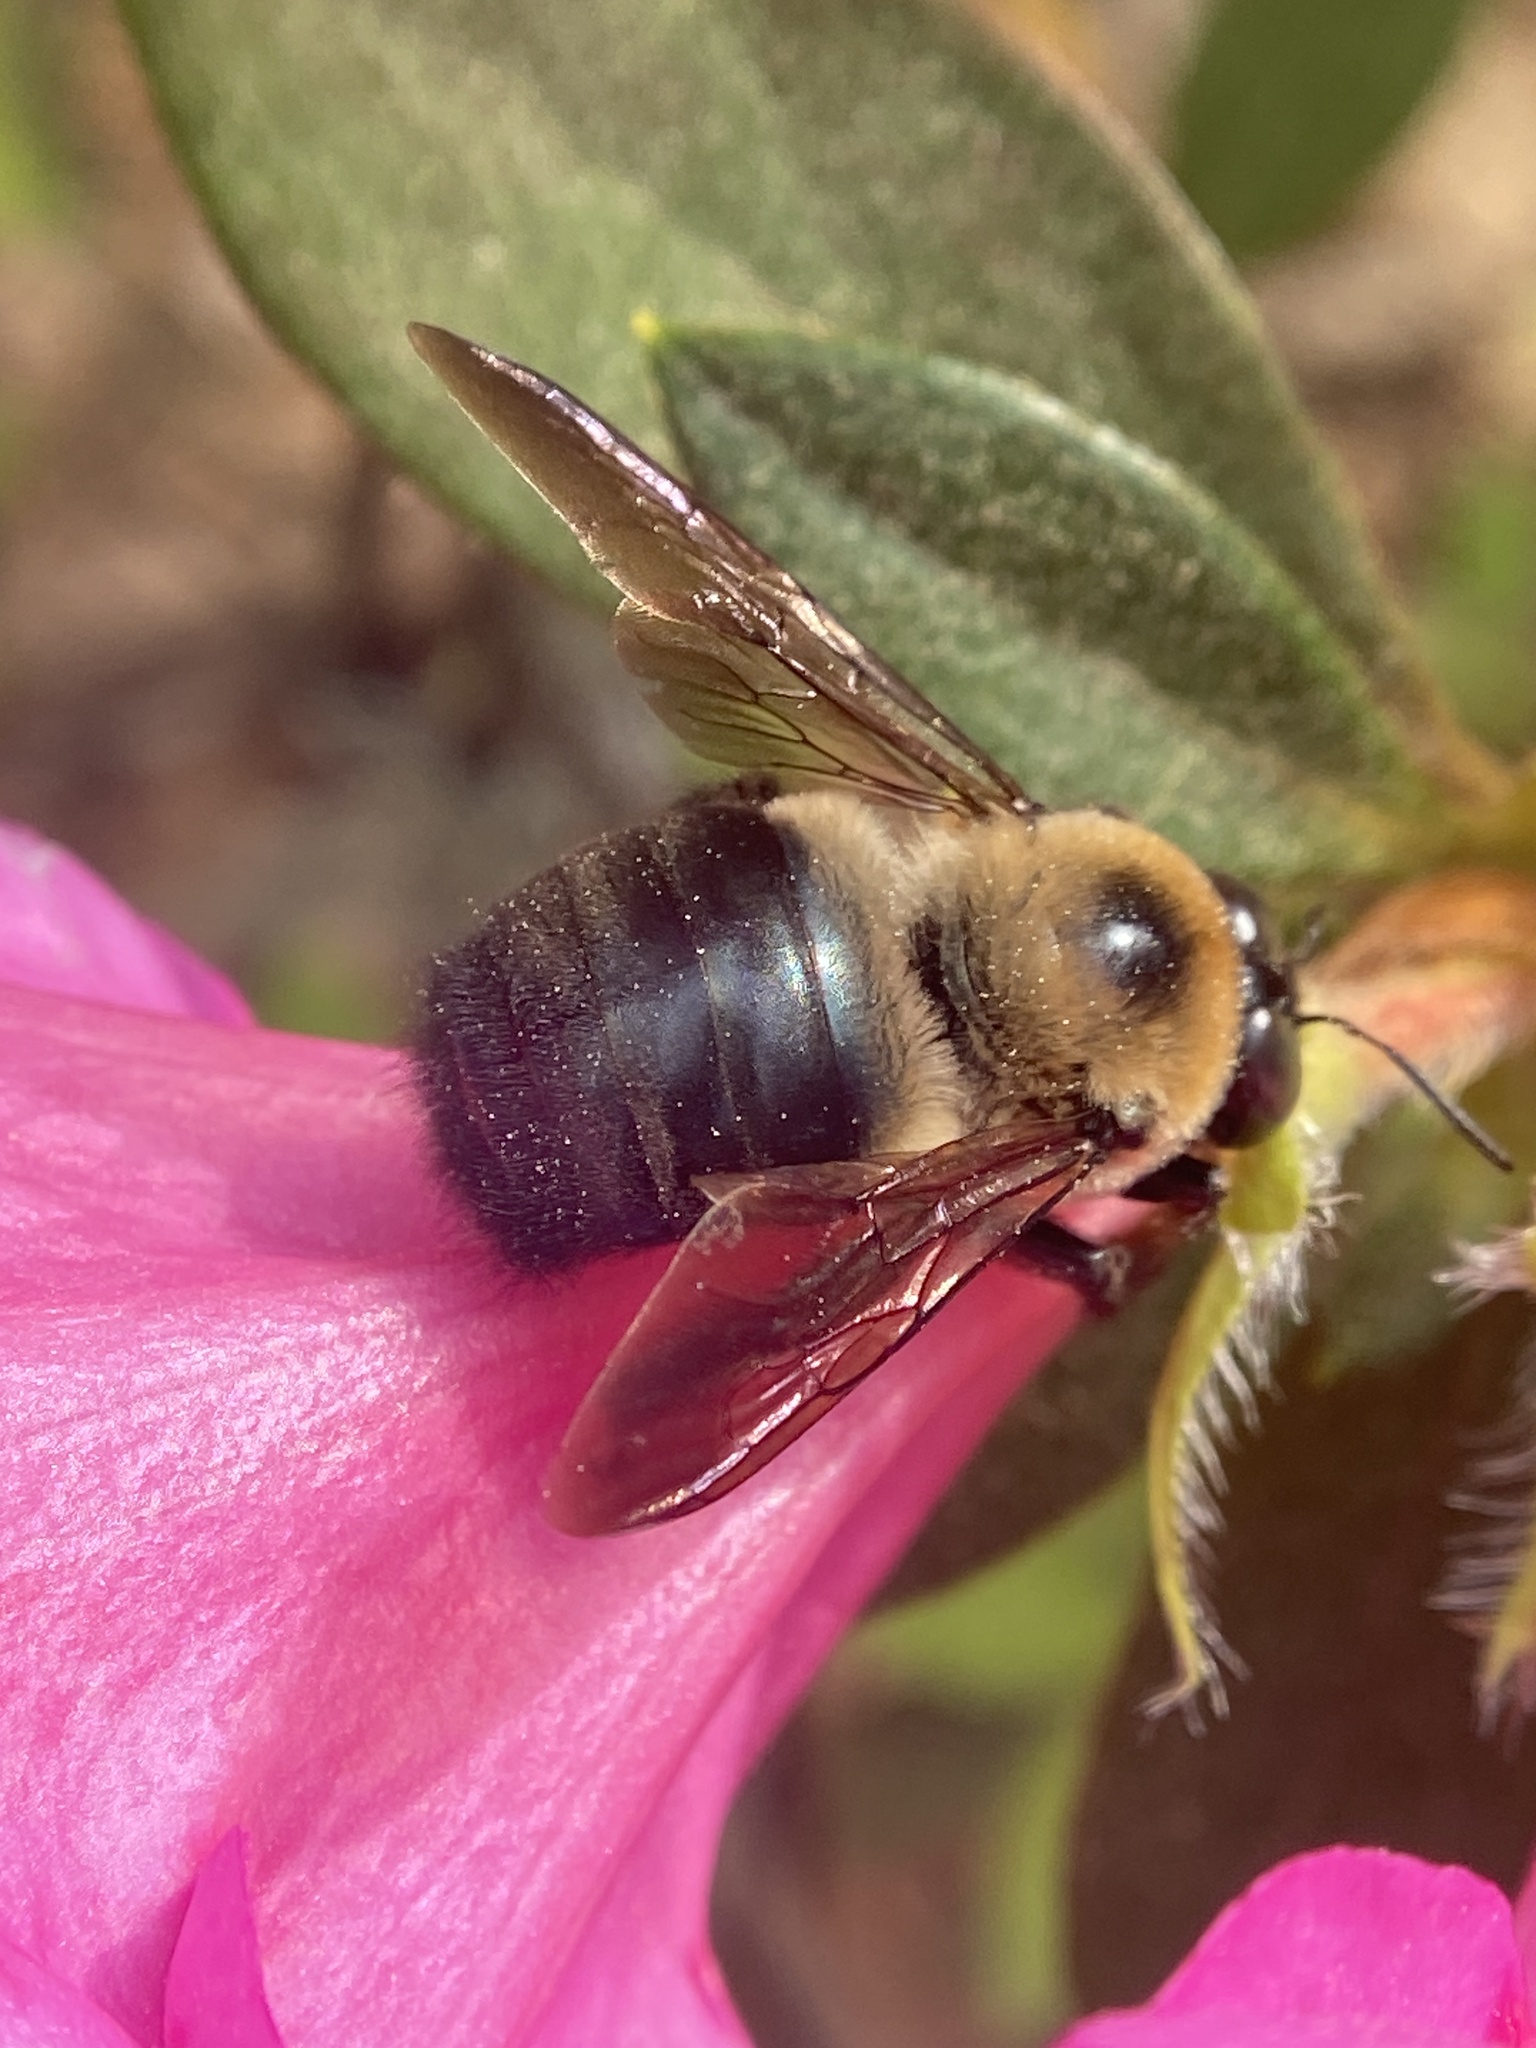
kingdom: Animalia
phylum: Arthropoda
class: Insecta
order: Hymenoptera
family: Apidae
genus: Xylocopa
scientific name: Xylocopa virginica
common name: Carpenter bee
